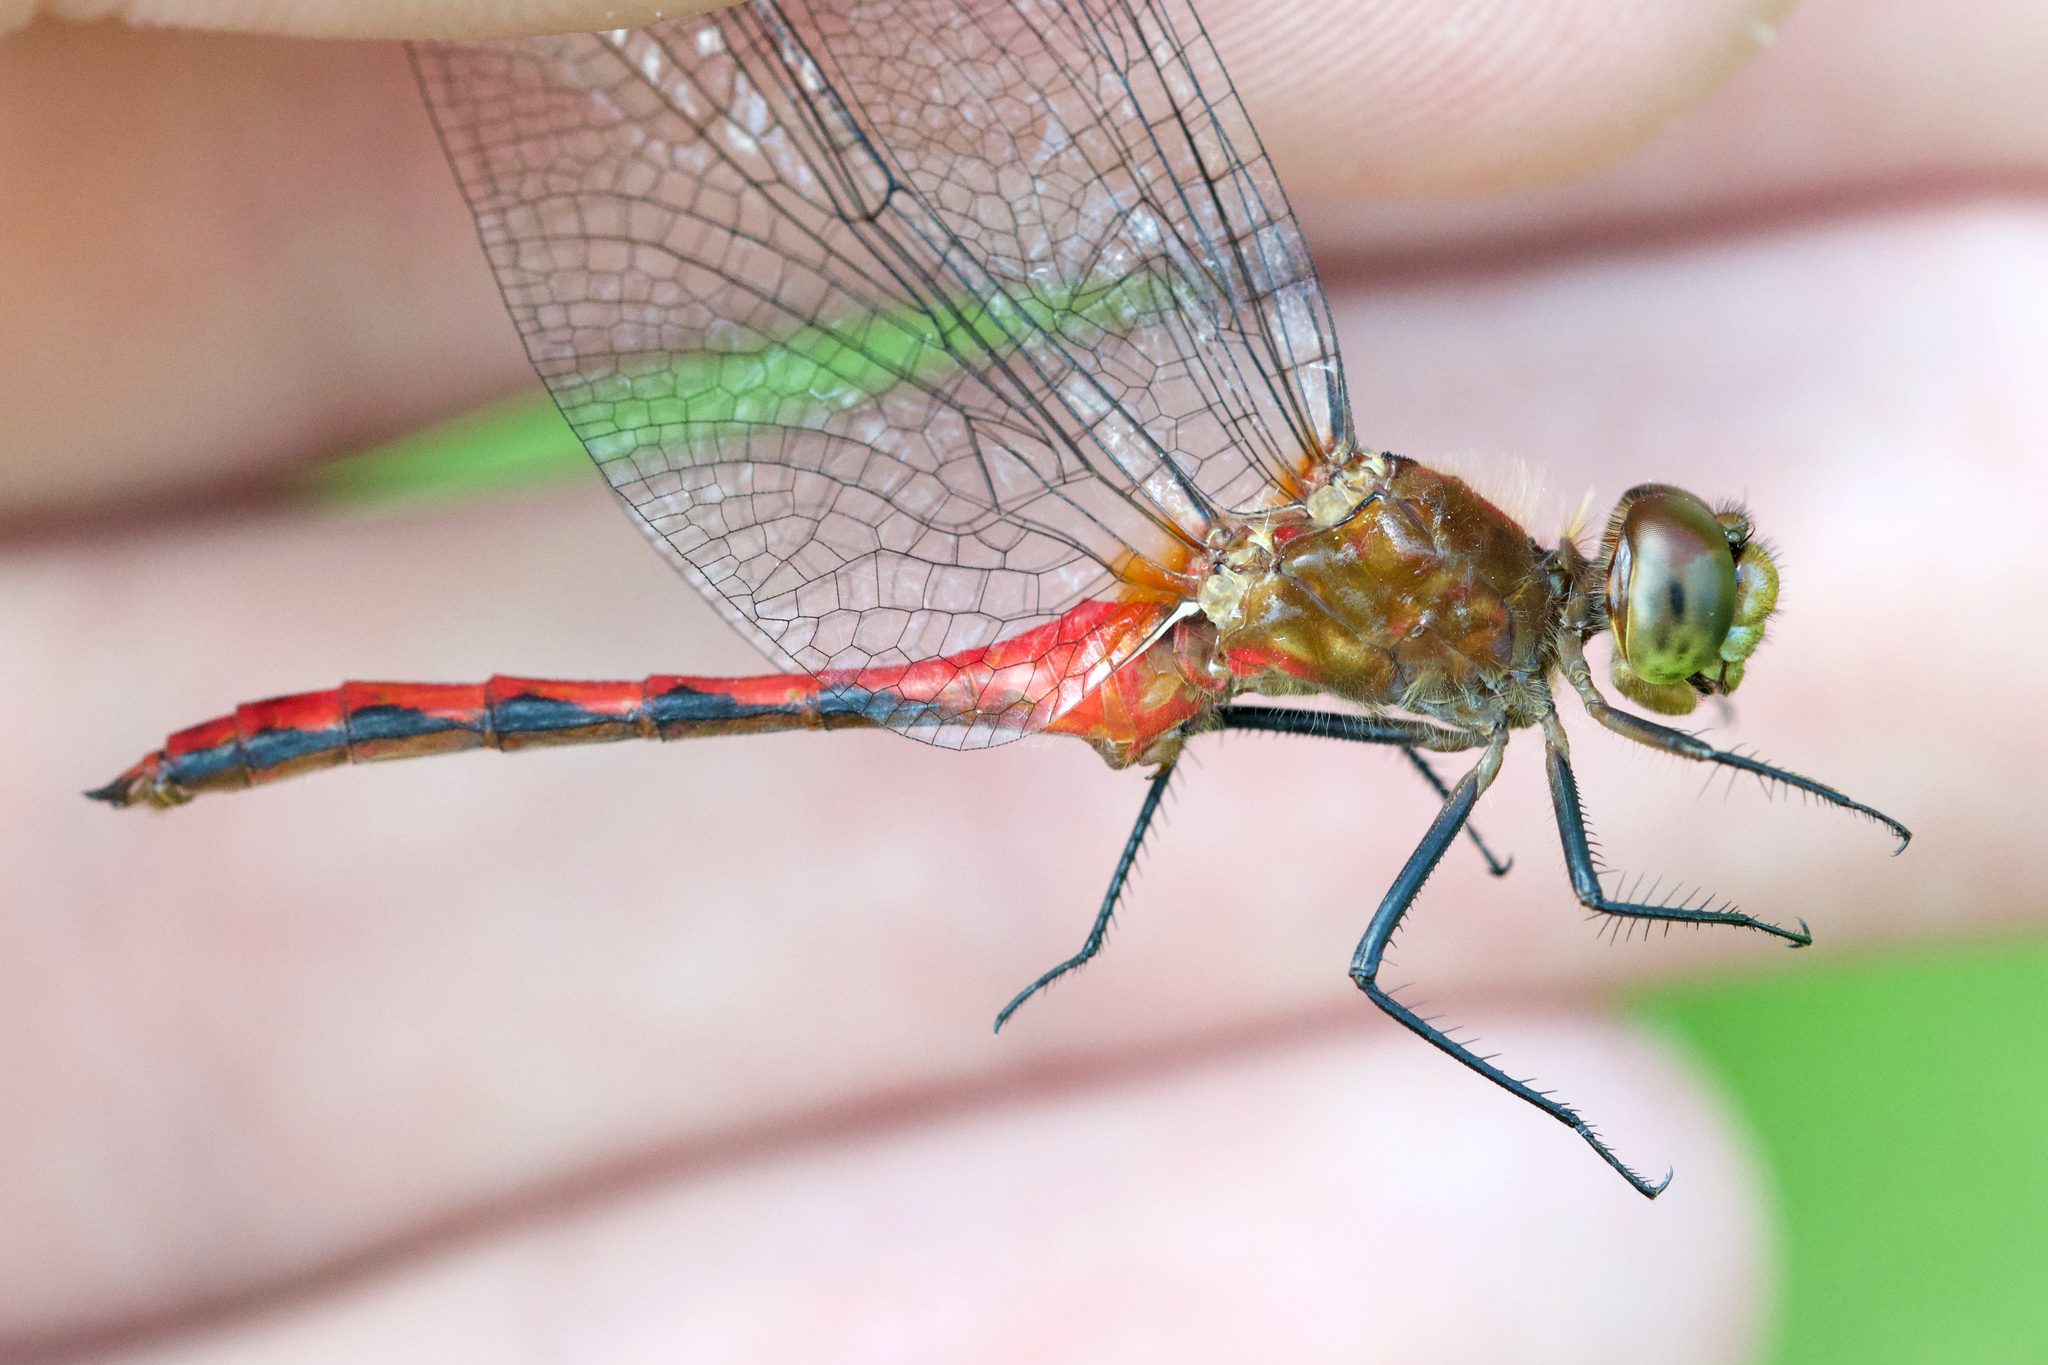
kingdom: Animalia
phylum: Arthropoda
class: Insecta
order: Odonata
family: Libellulidae
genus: Sympetrum
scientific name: Sympetrum rubicundulum
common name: Ruby meadowhawk
